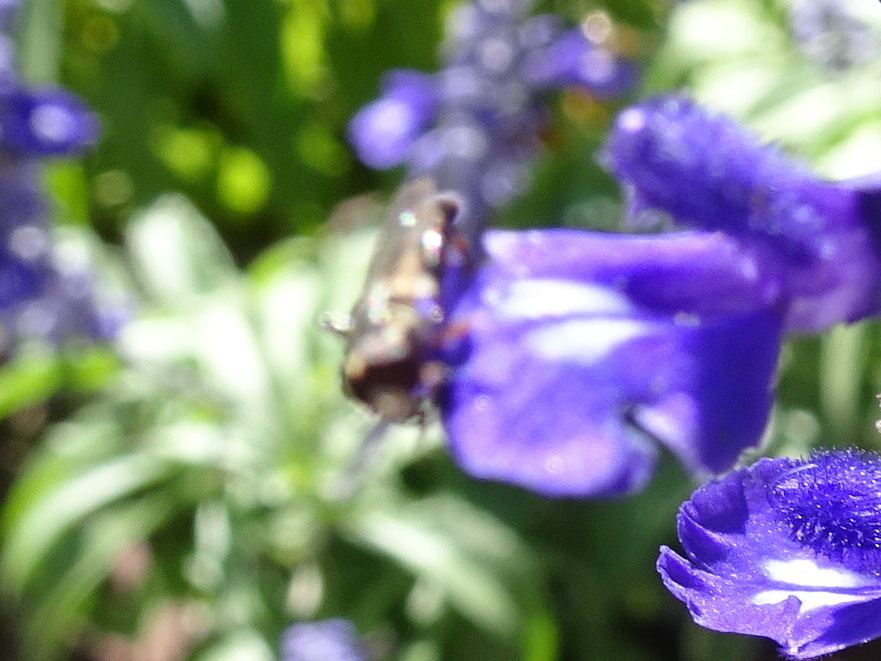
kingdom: Animalia
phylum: Arthropoda
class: Insecta
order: Diptera
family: Syrphidae
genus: Syritta
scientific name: Syritta pipiens
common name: Hover fly
